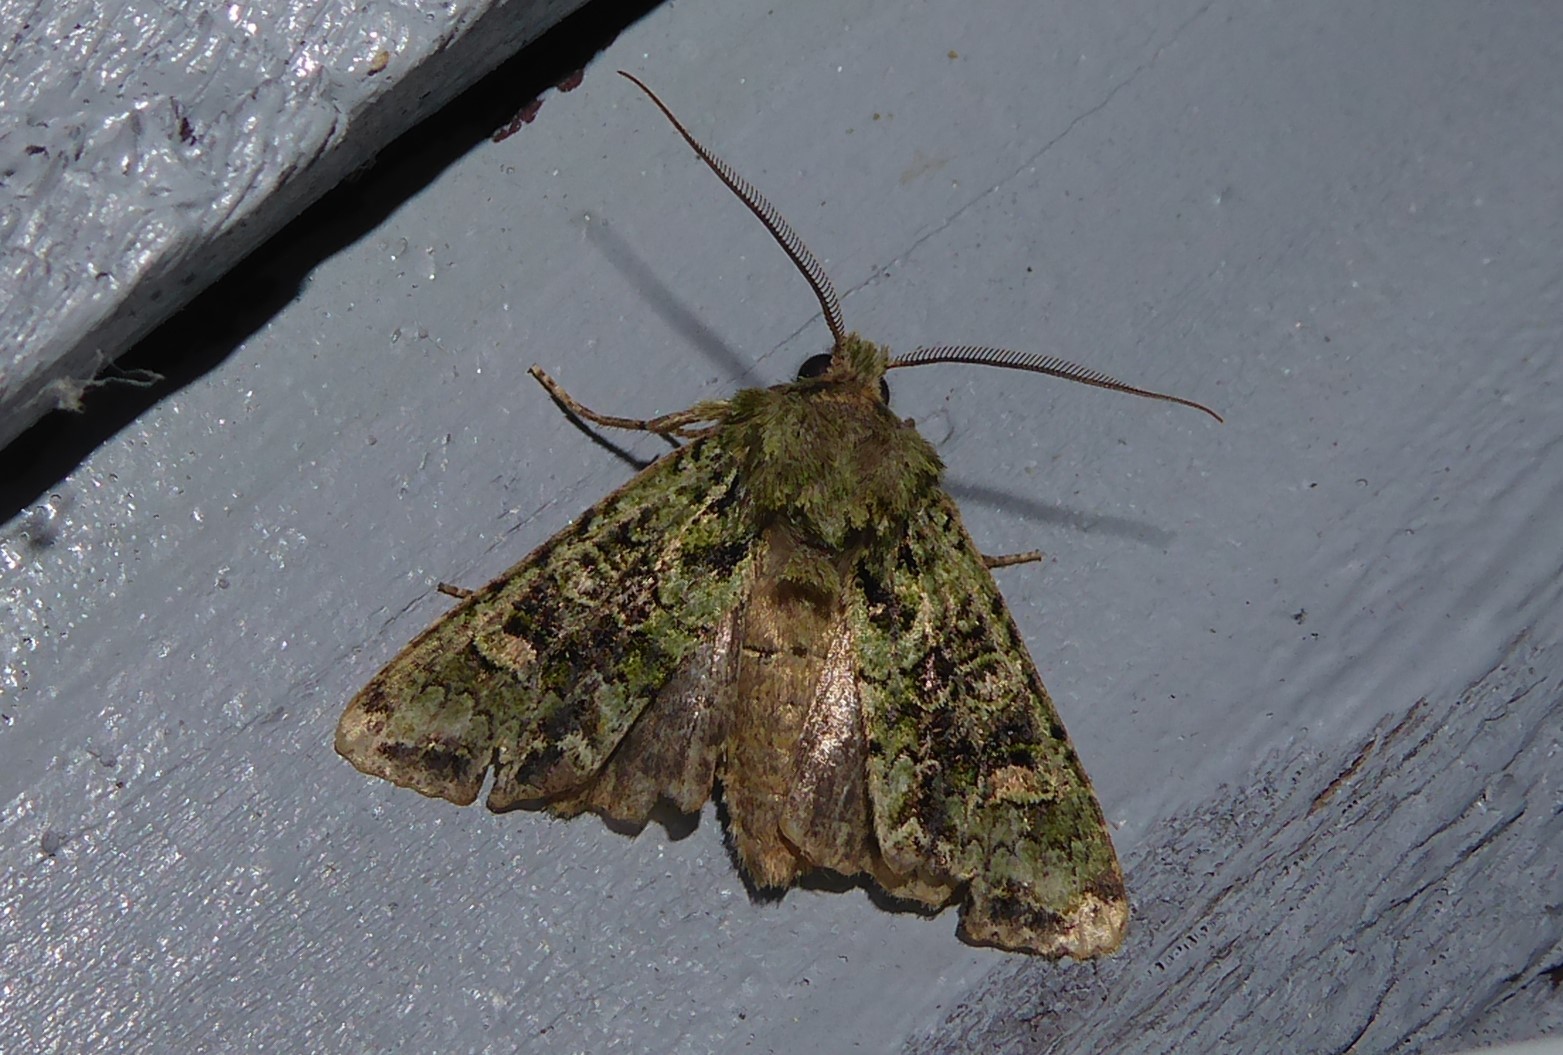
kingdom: Animalia
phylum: Arthropoda
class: Insecta
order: Lepidoptera
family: Noctuidae
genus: Ichneutica
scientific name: Ichneutica
